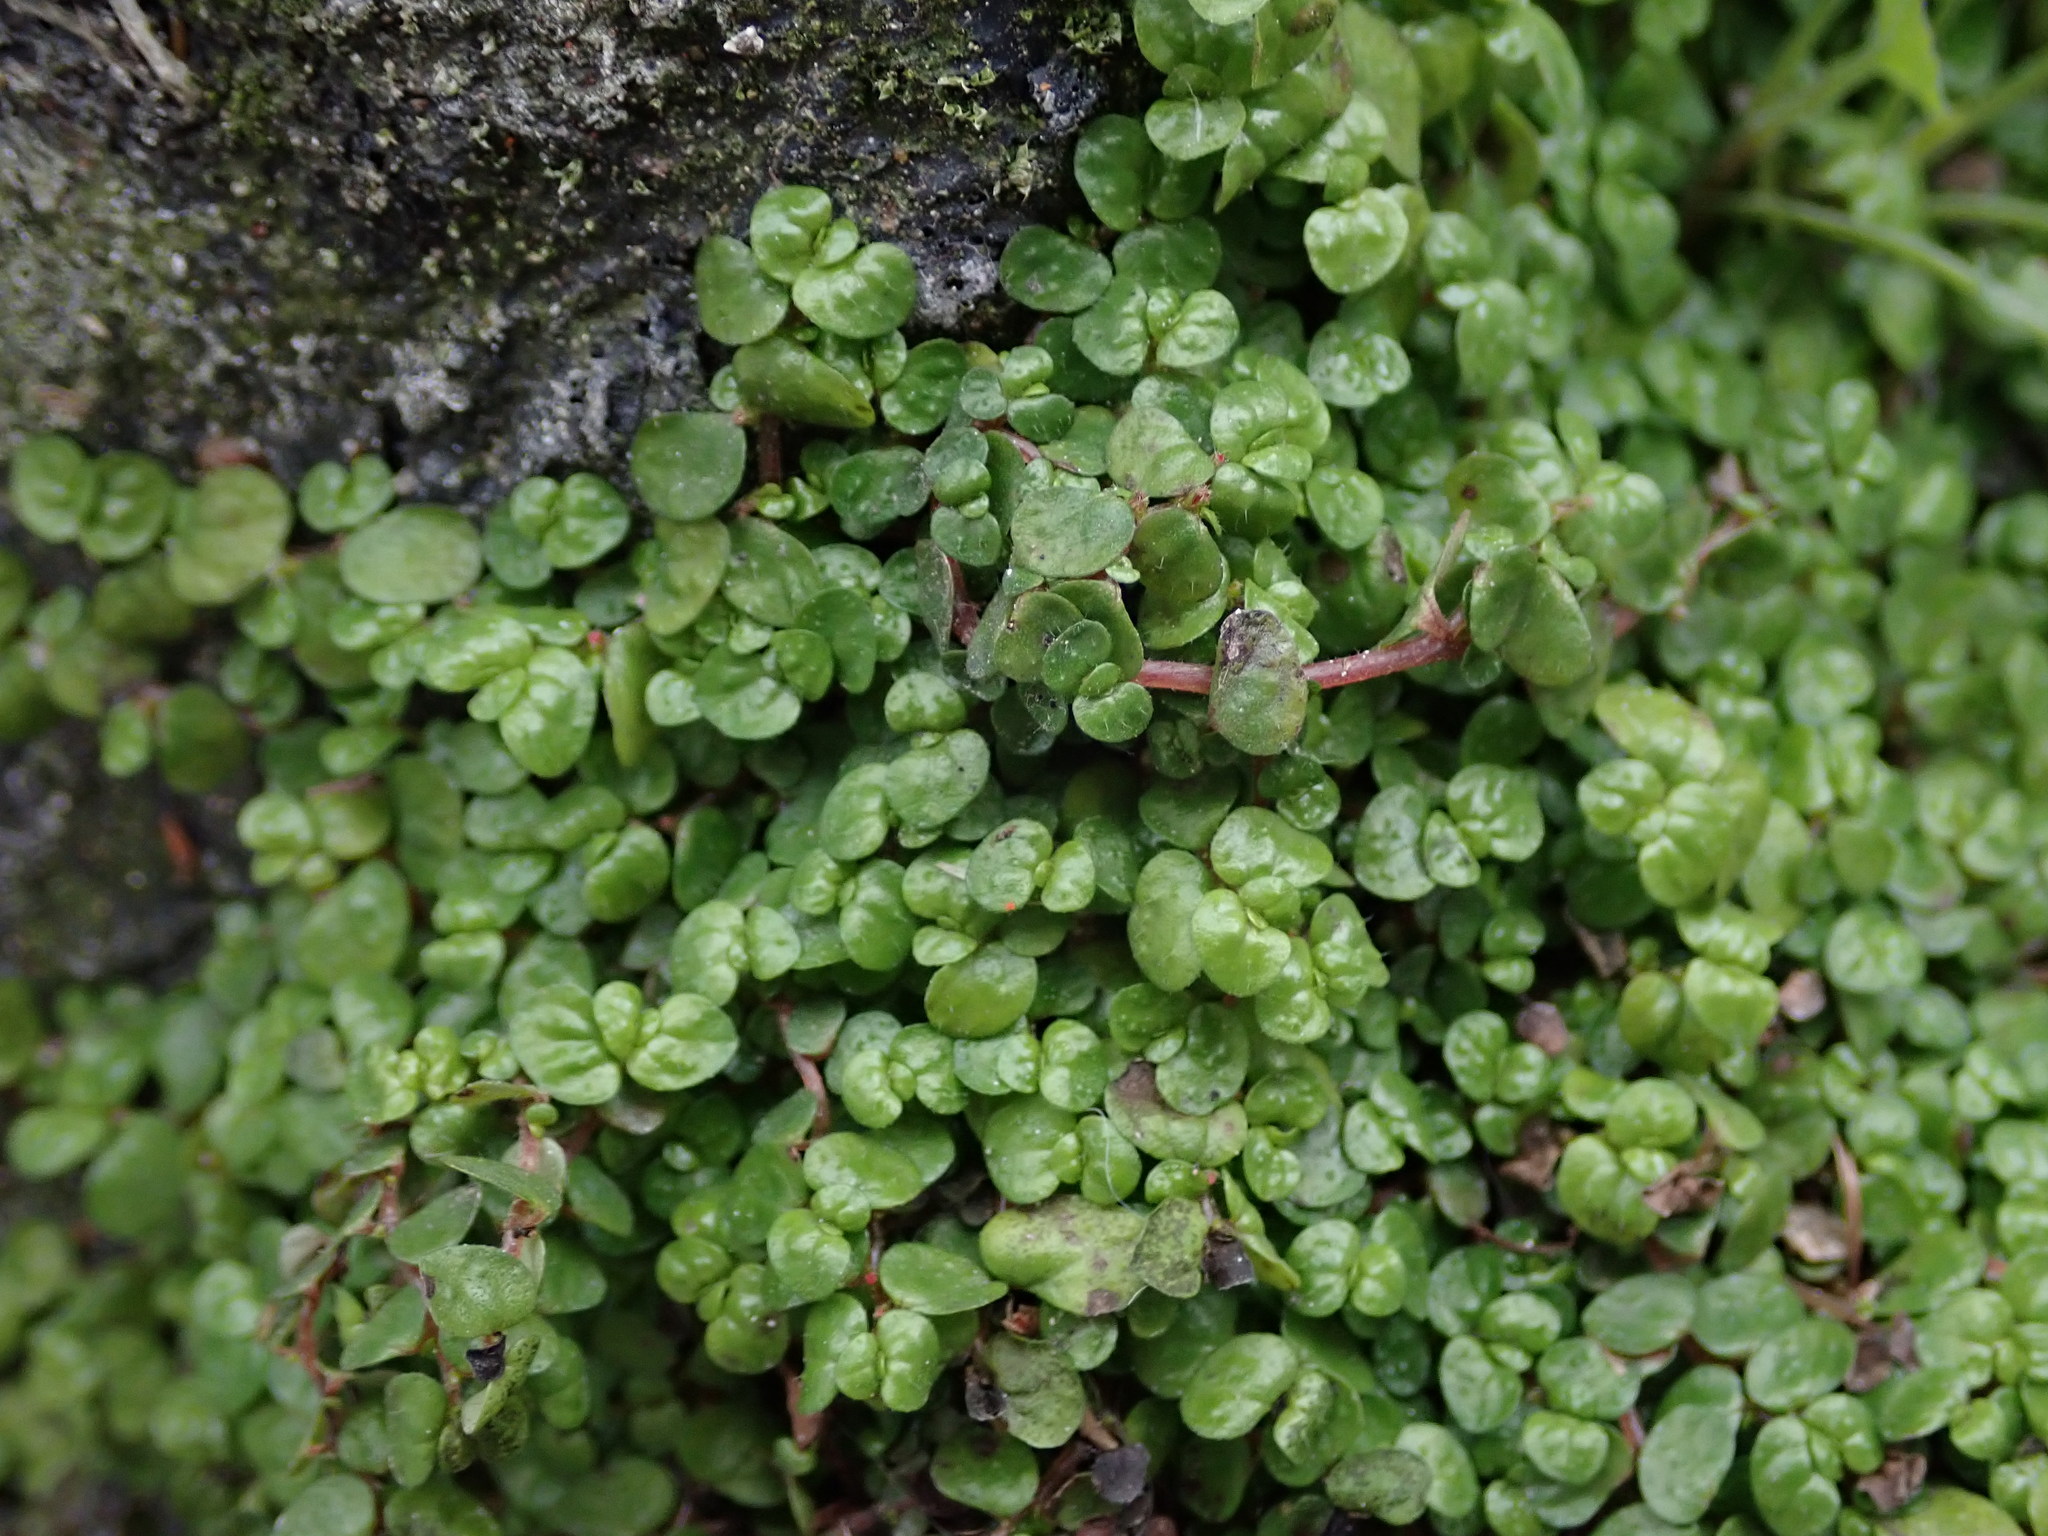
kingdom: Plantae
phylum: Tracheophyta
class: Magnoliopsida
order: Rosales
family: Urticaceae
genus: Soleirolia
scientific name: Soleirolia soleirolii
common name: Mind-your-own-business
